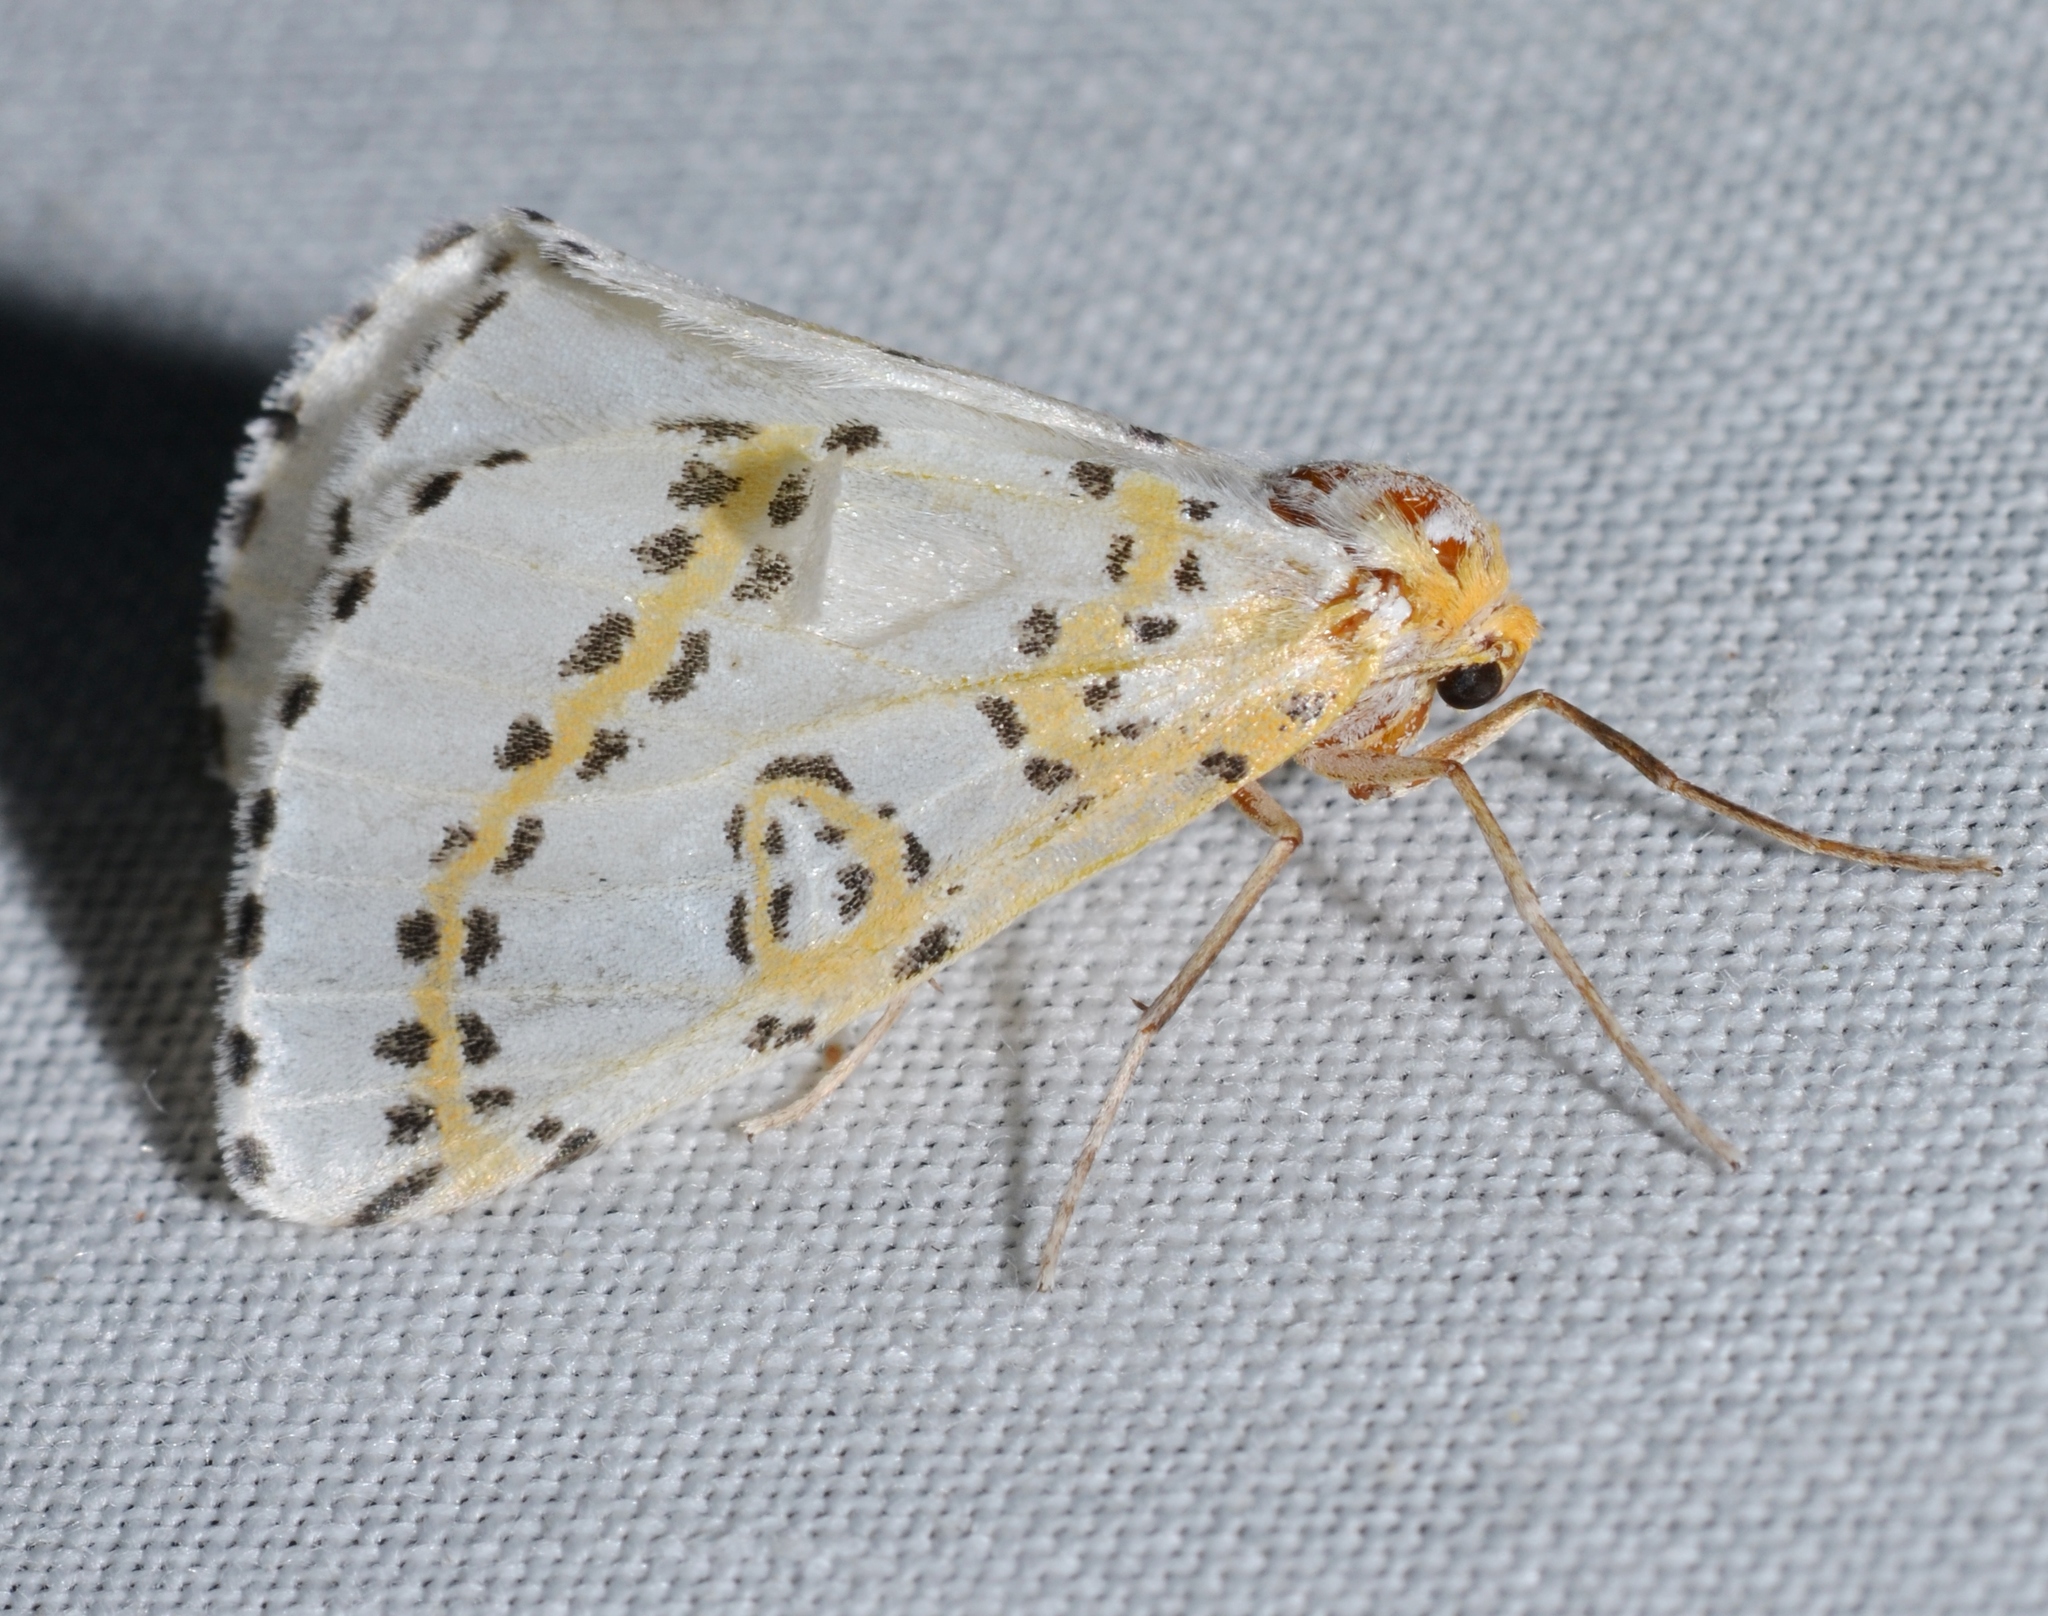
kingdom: Animalia
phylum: Arthropoda
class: Insecta
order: Lepidoptera
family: Geometridae
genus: Philtraea
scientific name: Philtraea monillata
